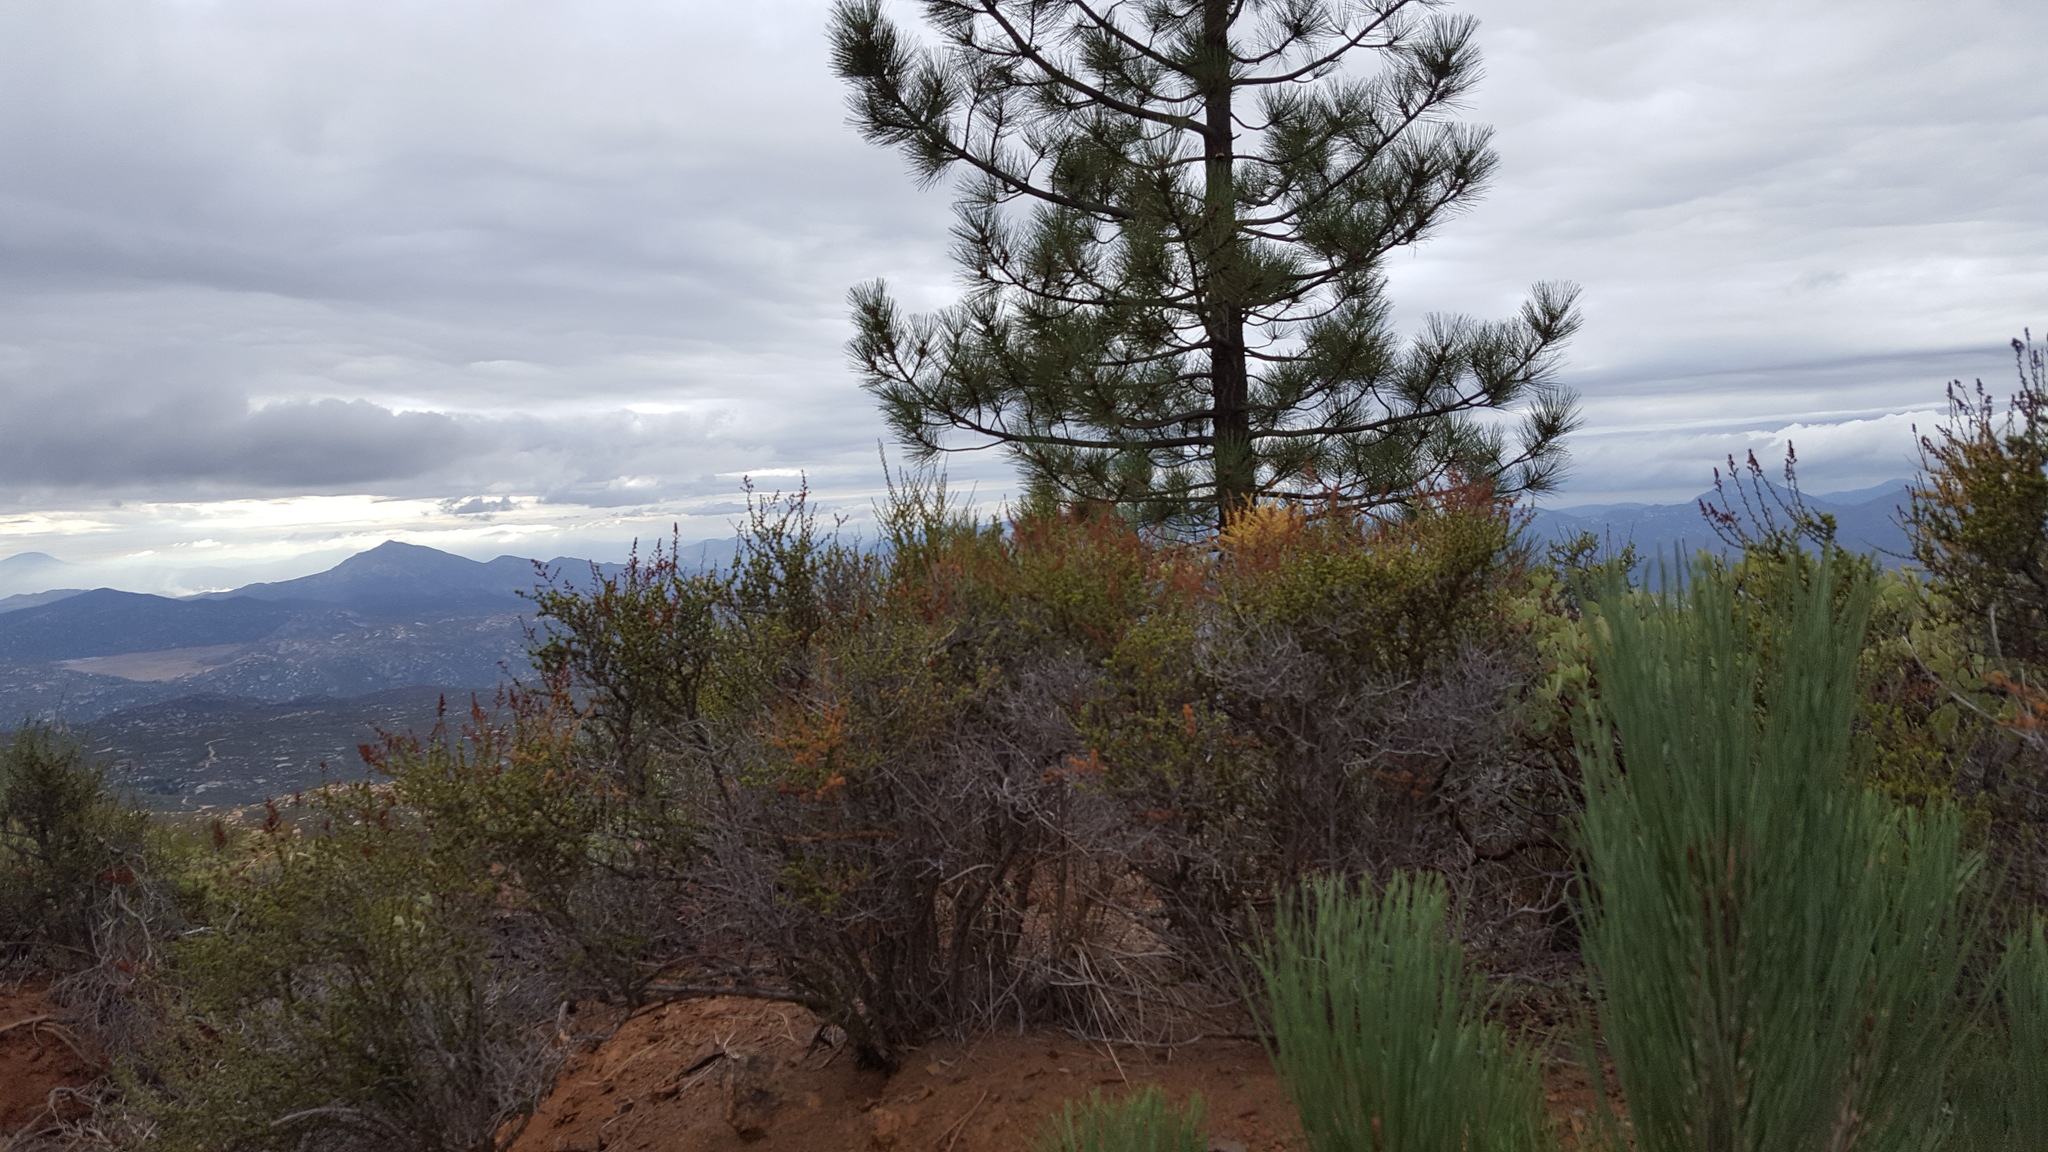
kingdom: Plantae
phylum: Tracheophyta
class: Magnoliopsida
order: Rosales
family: Rosaceae
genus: Adenostoma
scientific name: Adenostoma fasciculatum
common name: Chamise
